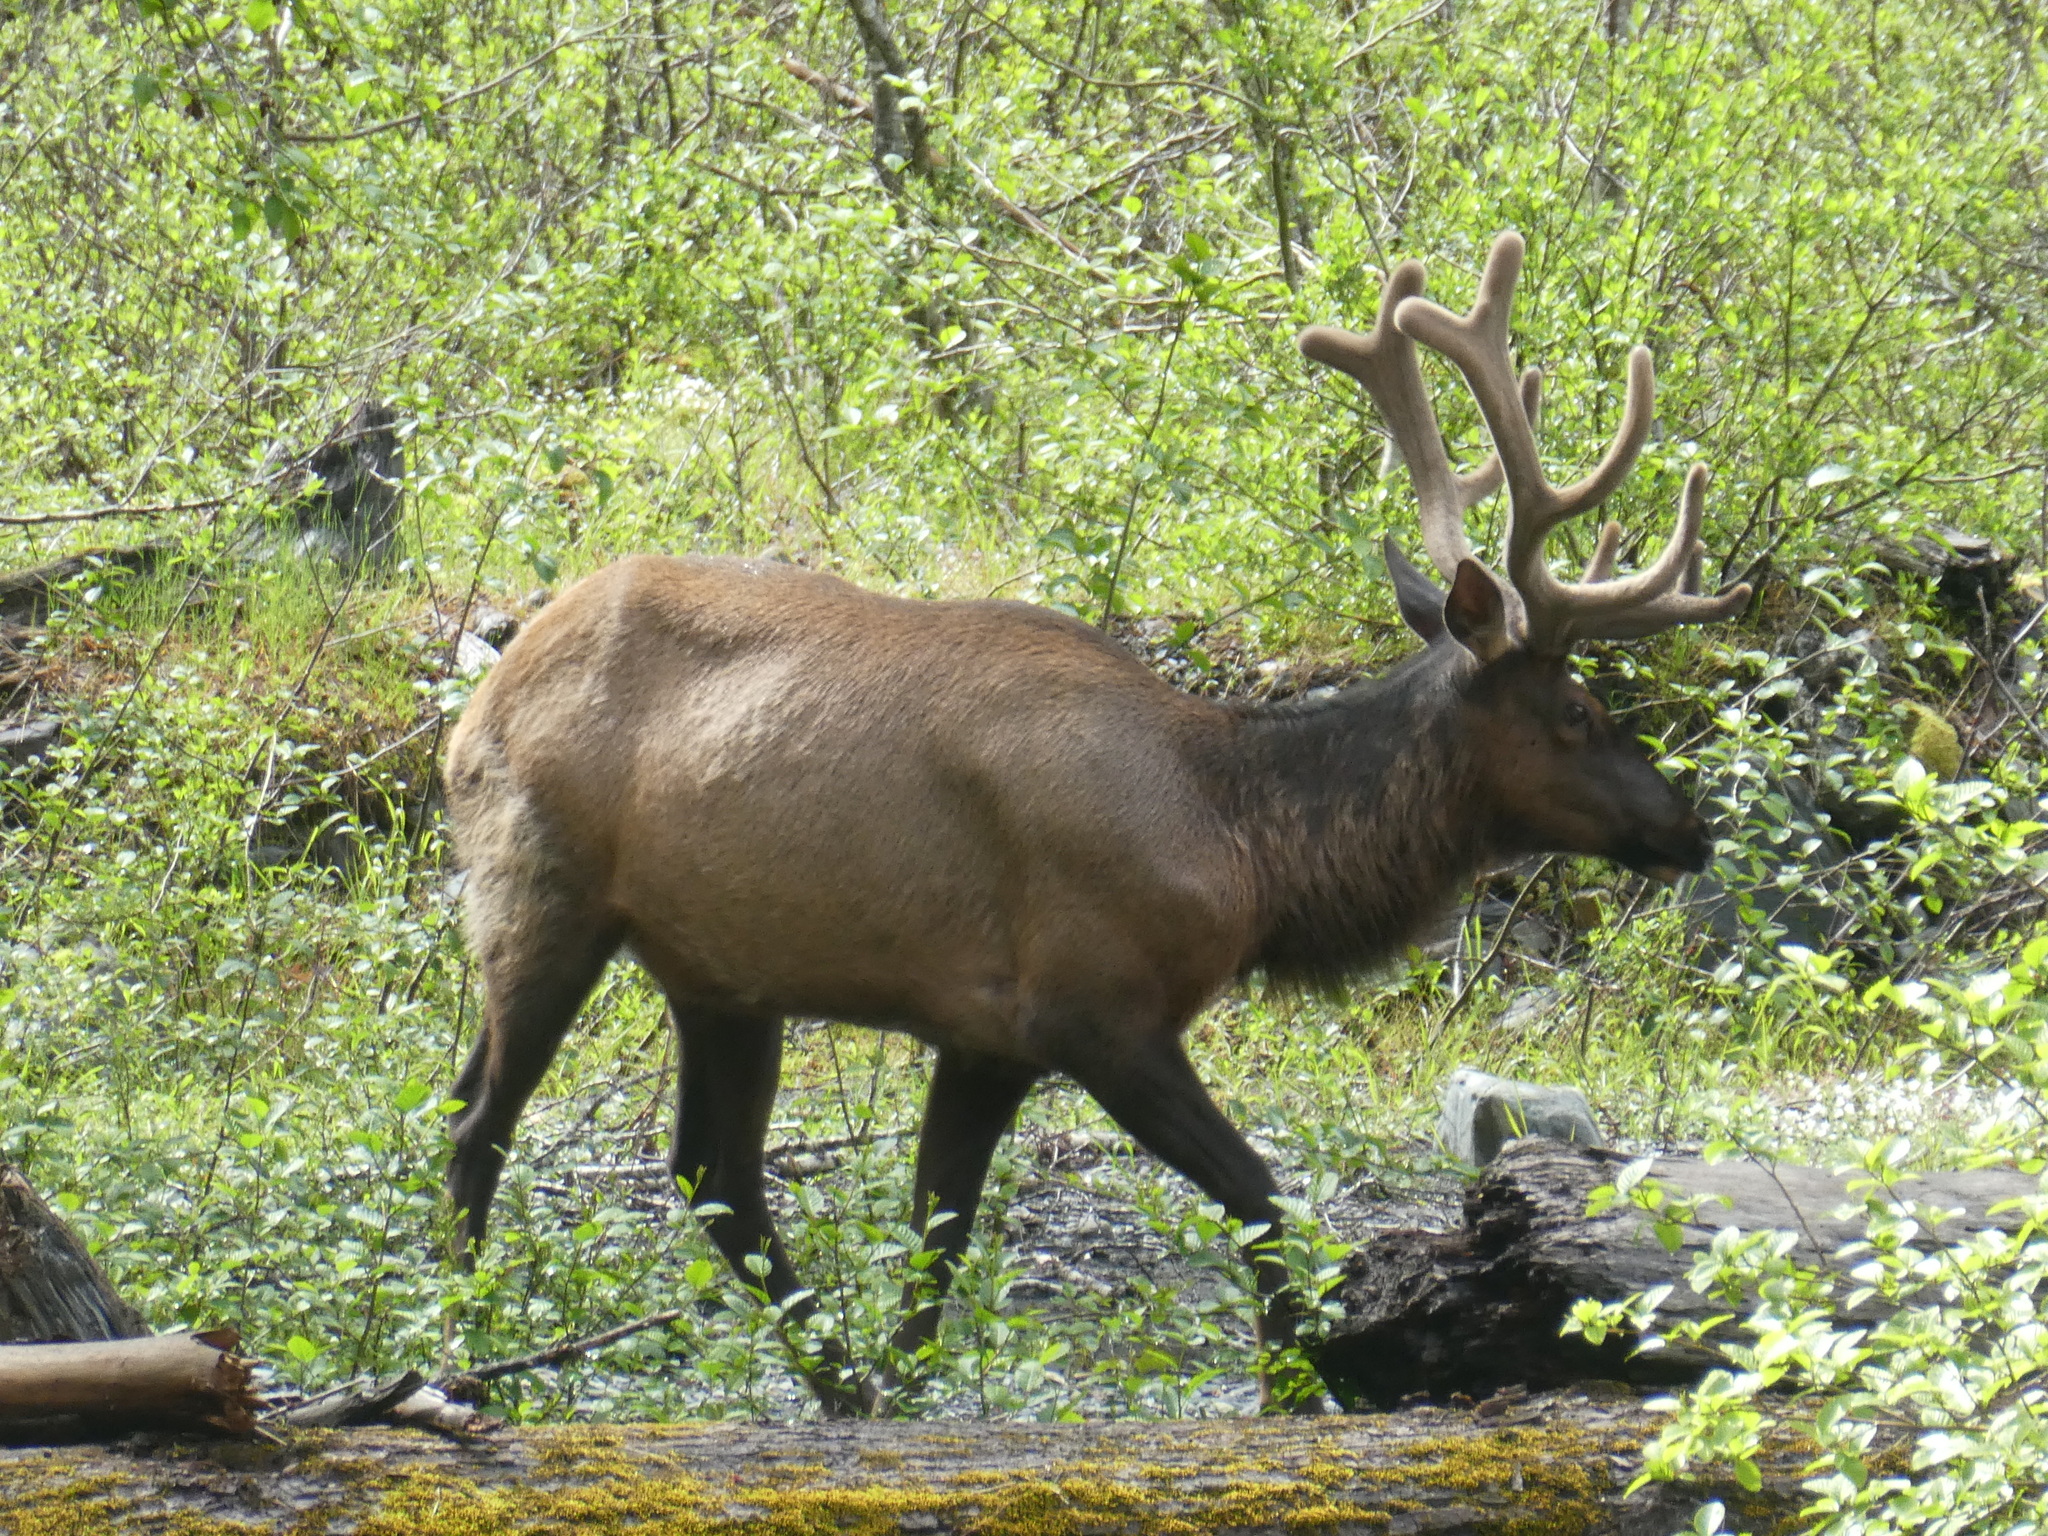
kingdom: Animalia
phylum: Chordata
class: Mammalia
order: Artiodactyla
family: Cervidae
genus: Cervus
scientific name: Cervus elaphus
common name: Red deer
